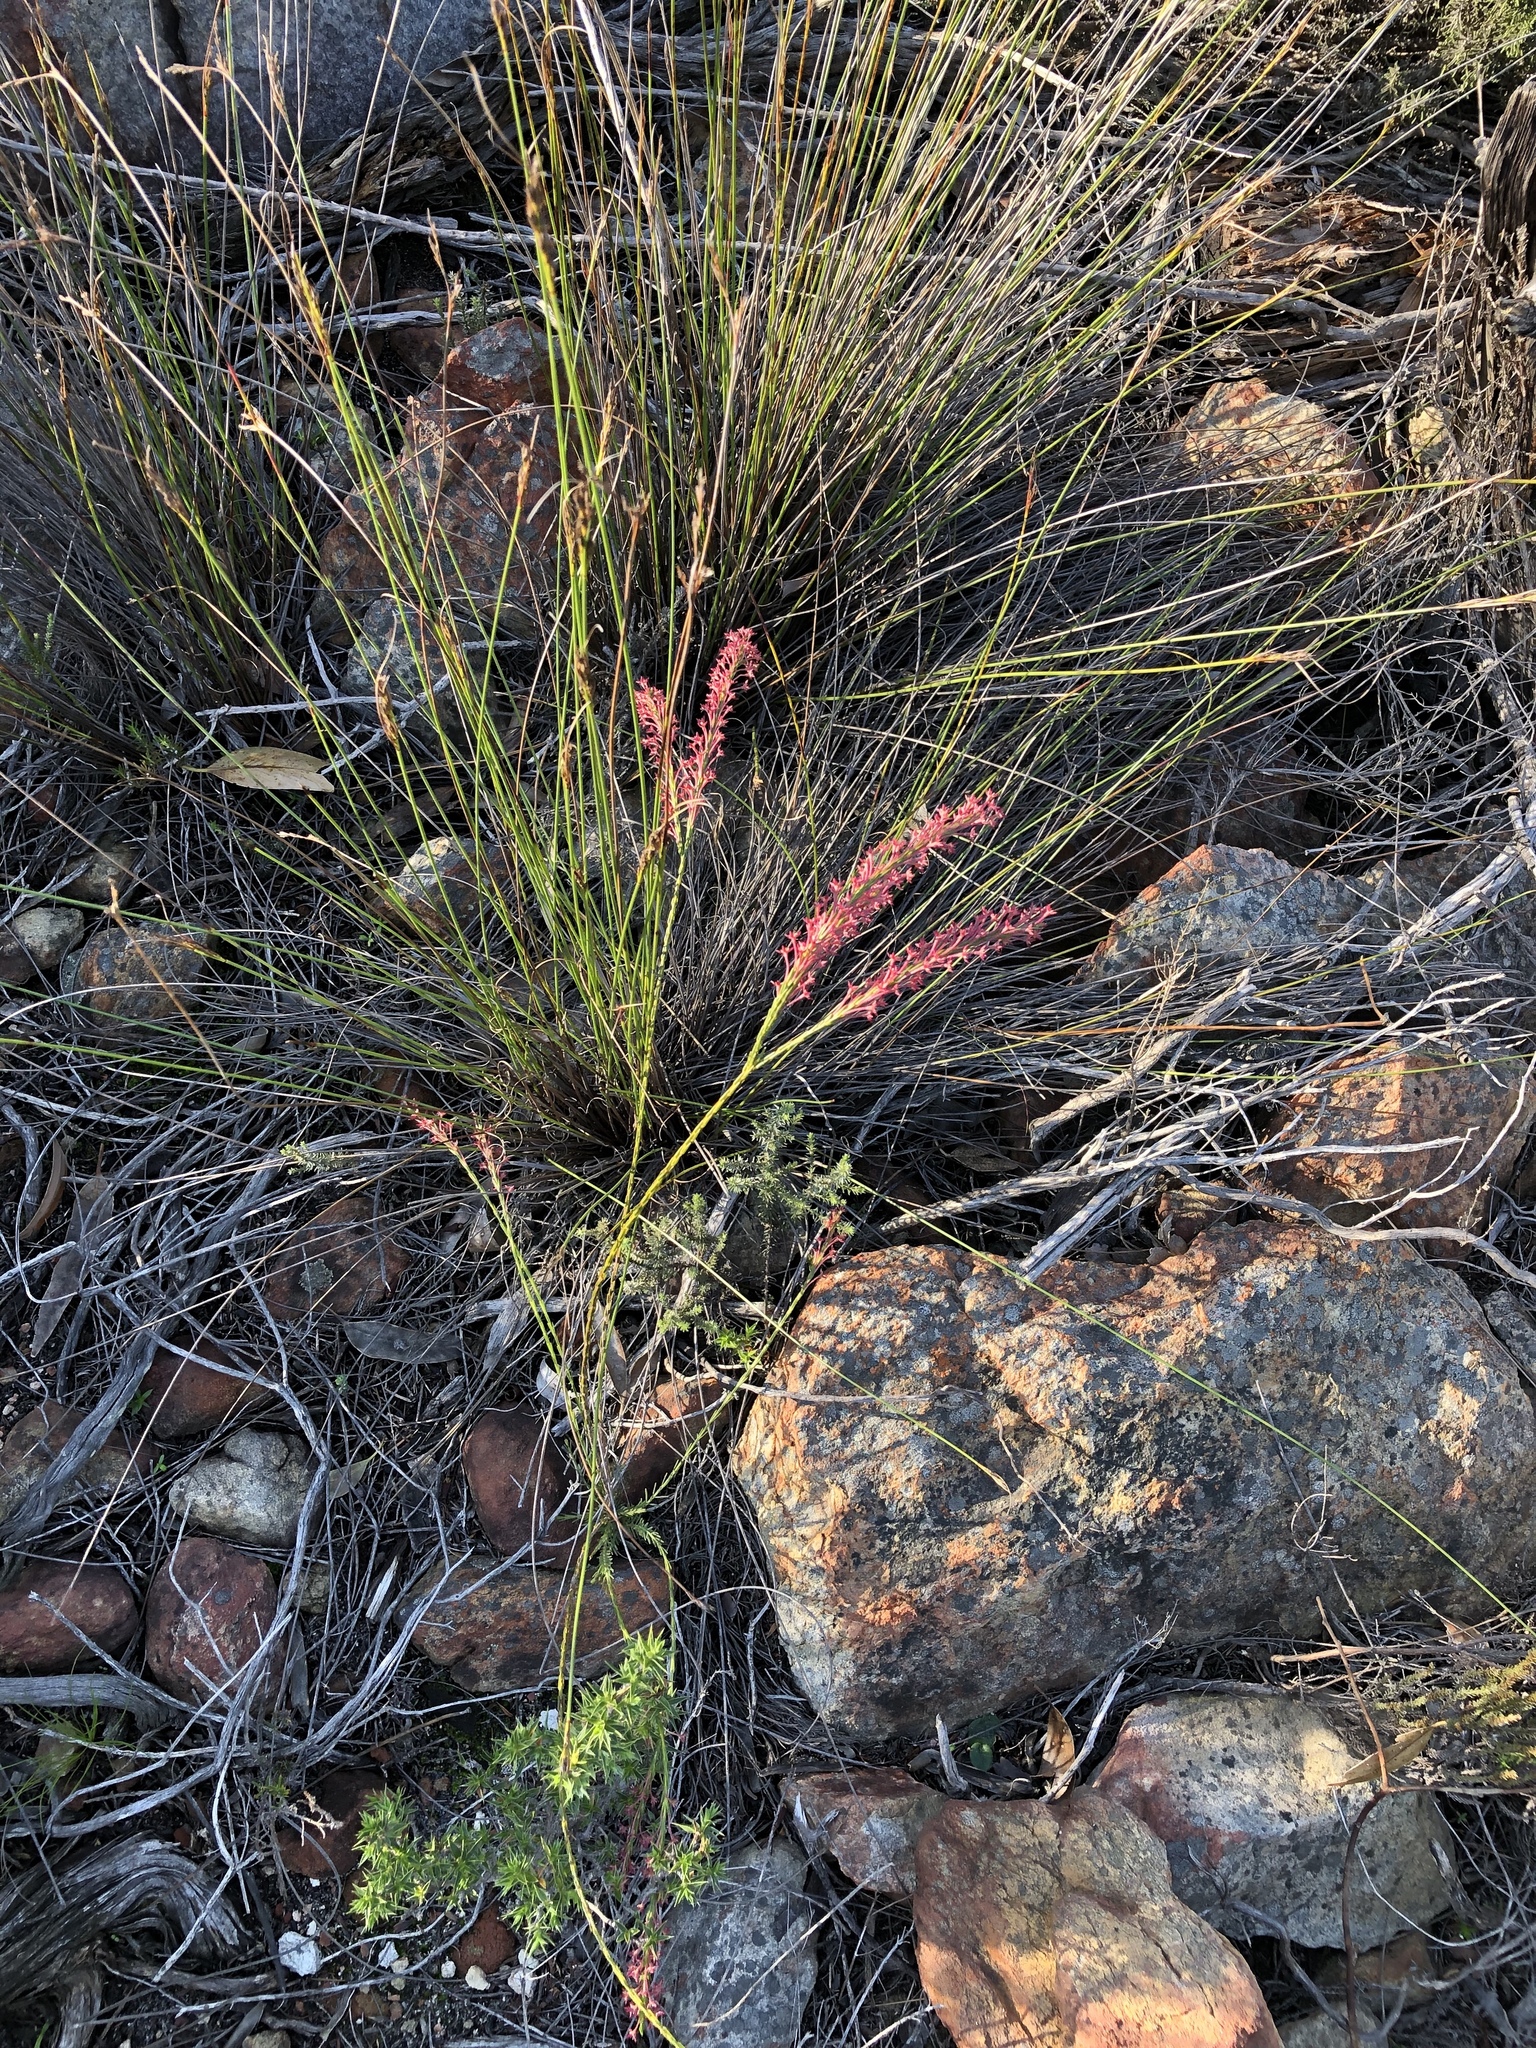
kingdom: Plantae
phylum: Tracheophyta
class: Magnoliopsida
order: Malvales
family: Thymelaeaceae
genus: Struthiola
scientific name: Struthiola ciliata
